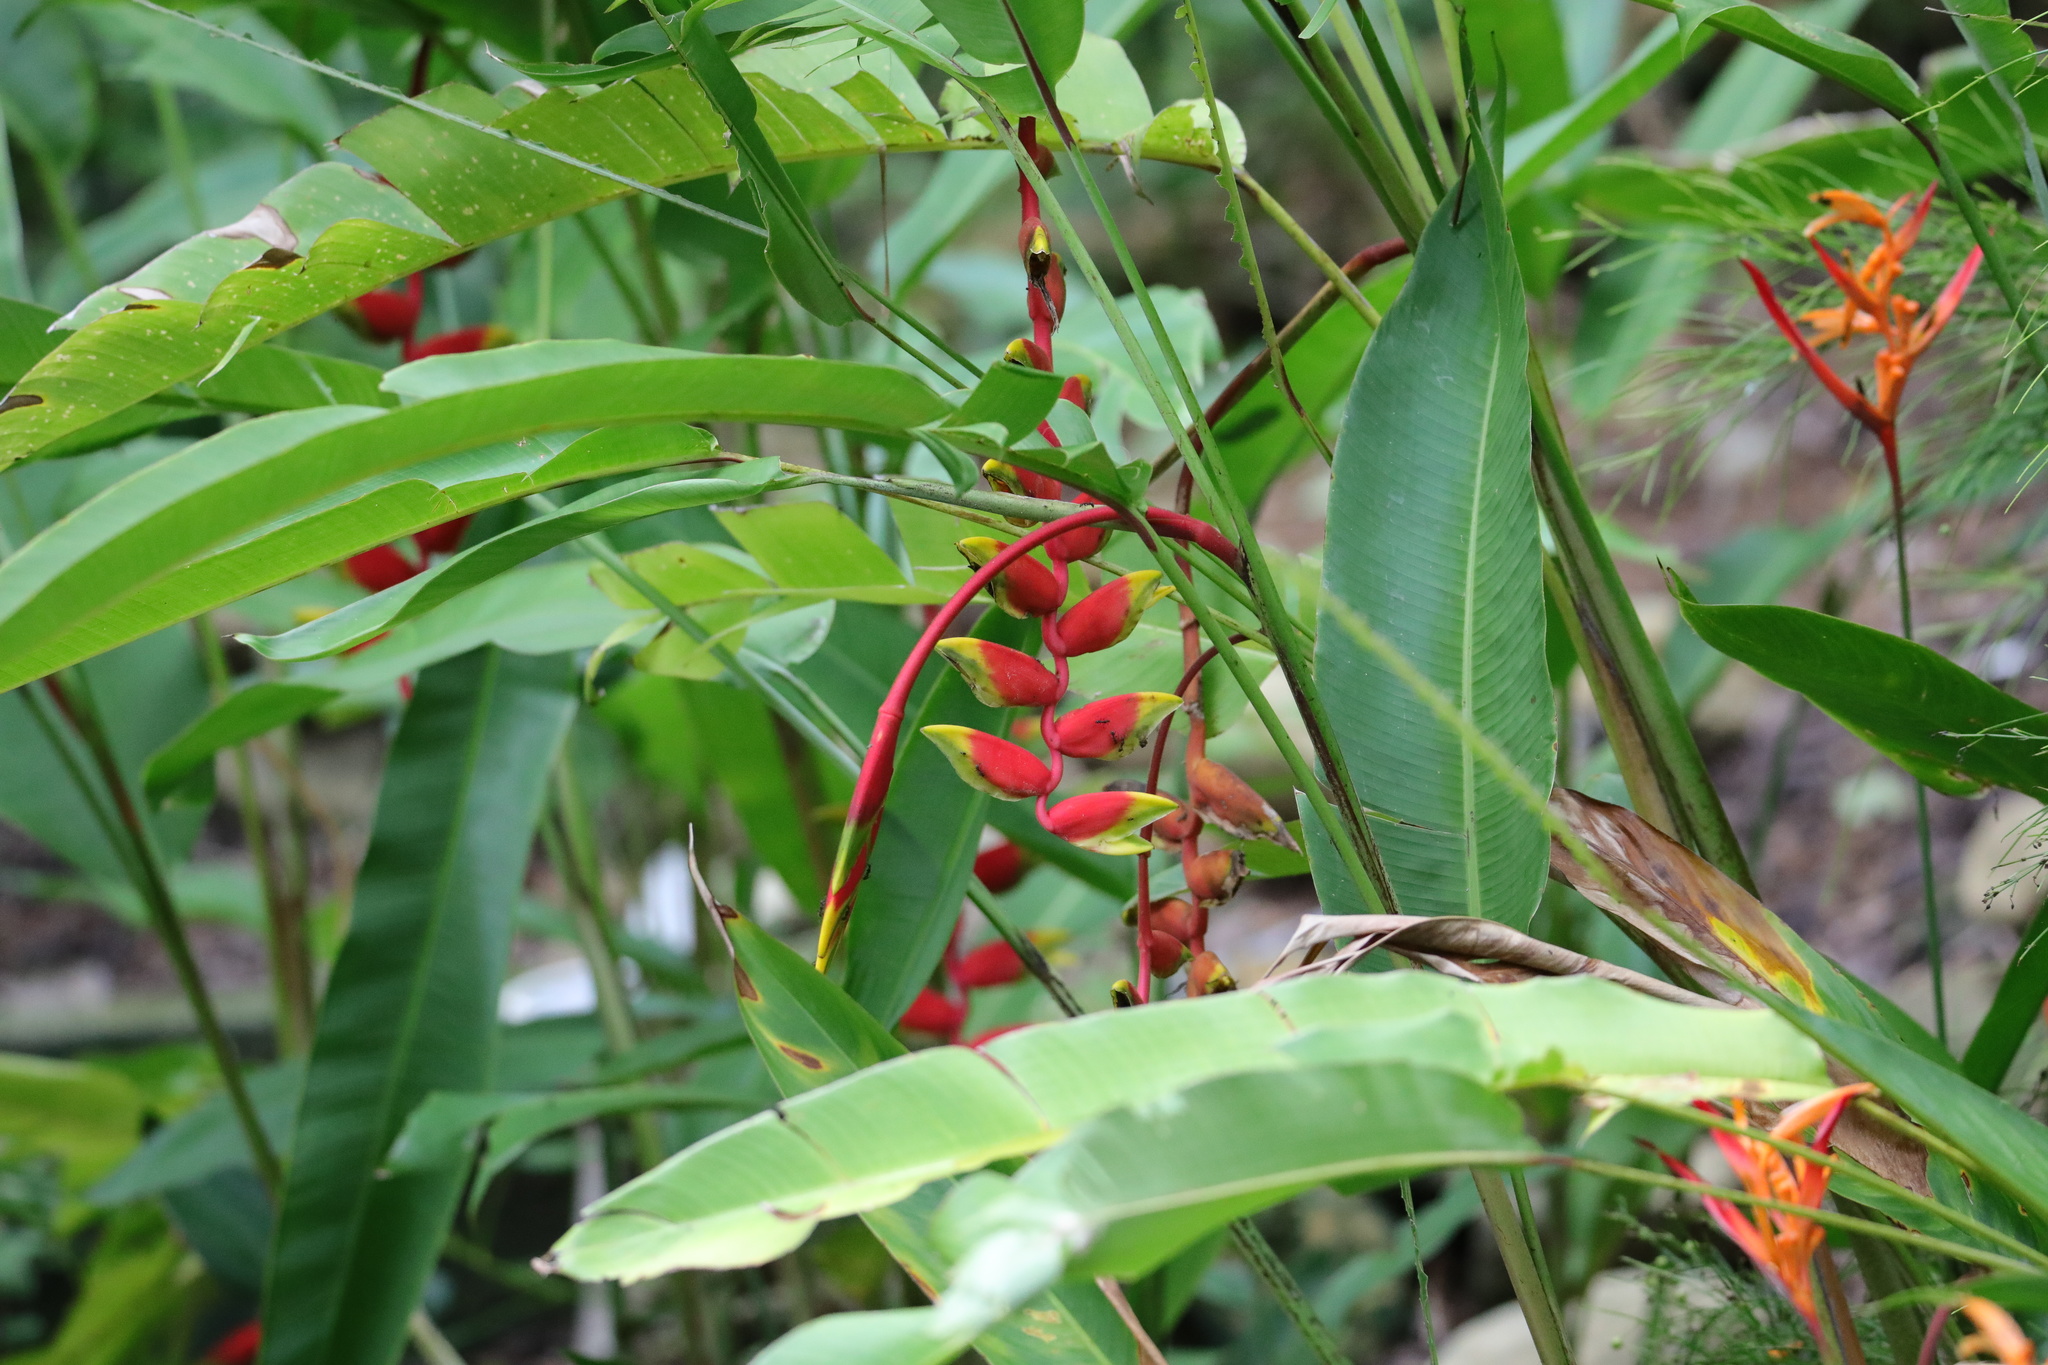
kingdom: Plantae
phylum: Tracheophyta
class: Liliopsida
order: Zingiberales
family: Heliconiaceae
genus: Heliconia
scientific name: Heliconia rostrata
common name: False bird of paradise
